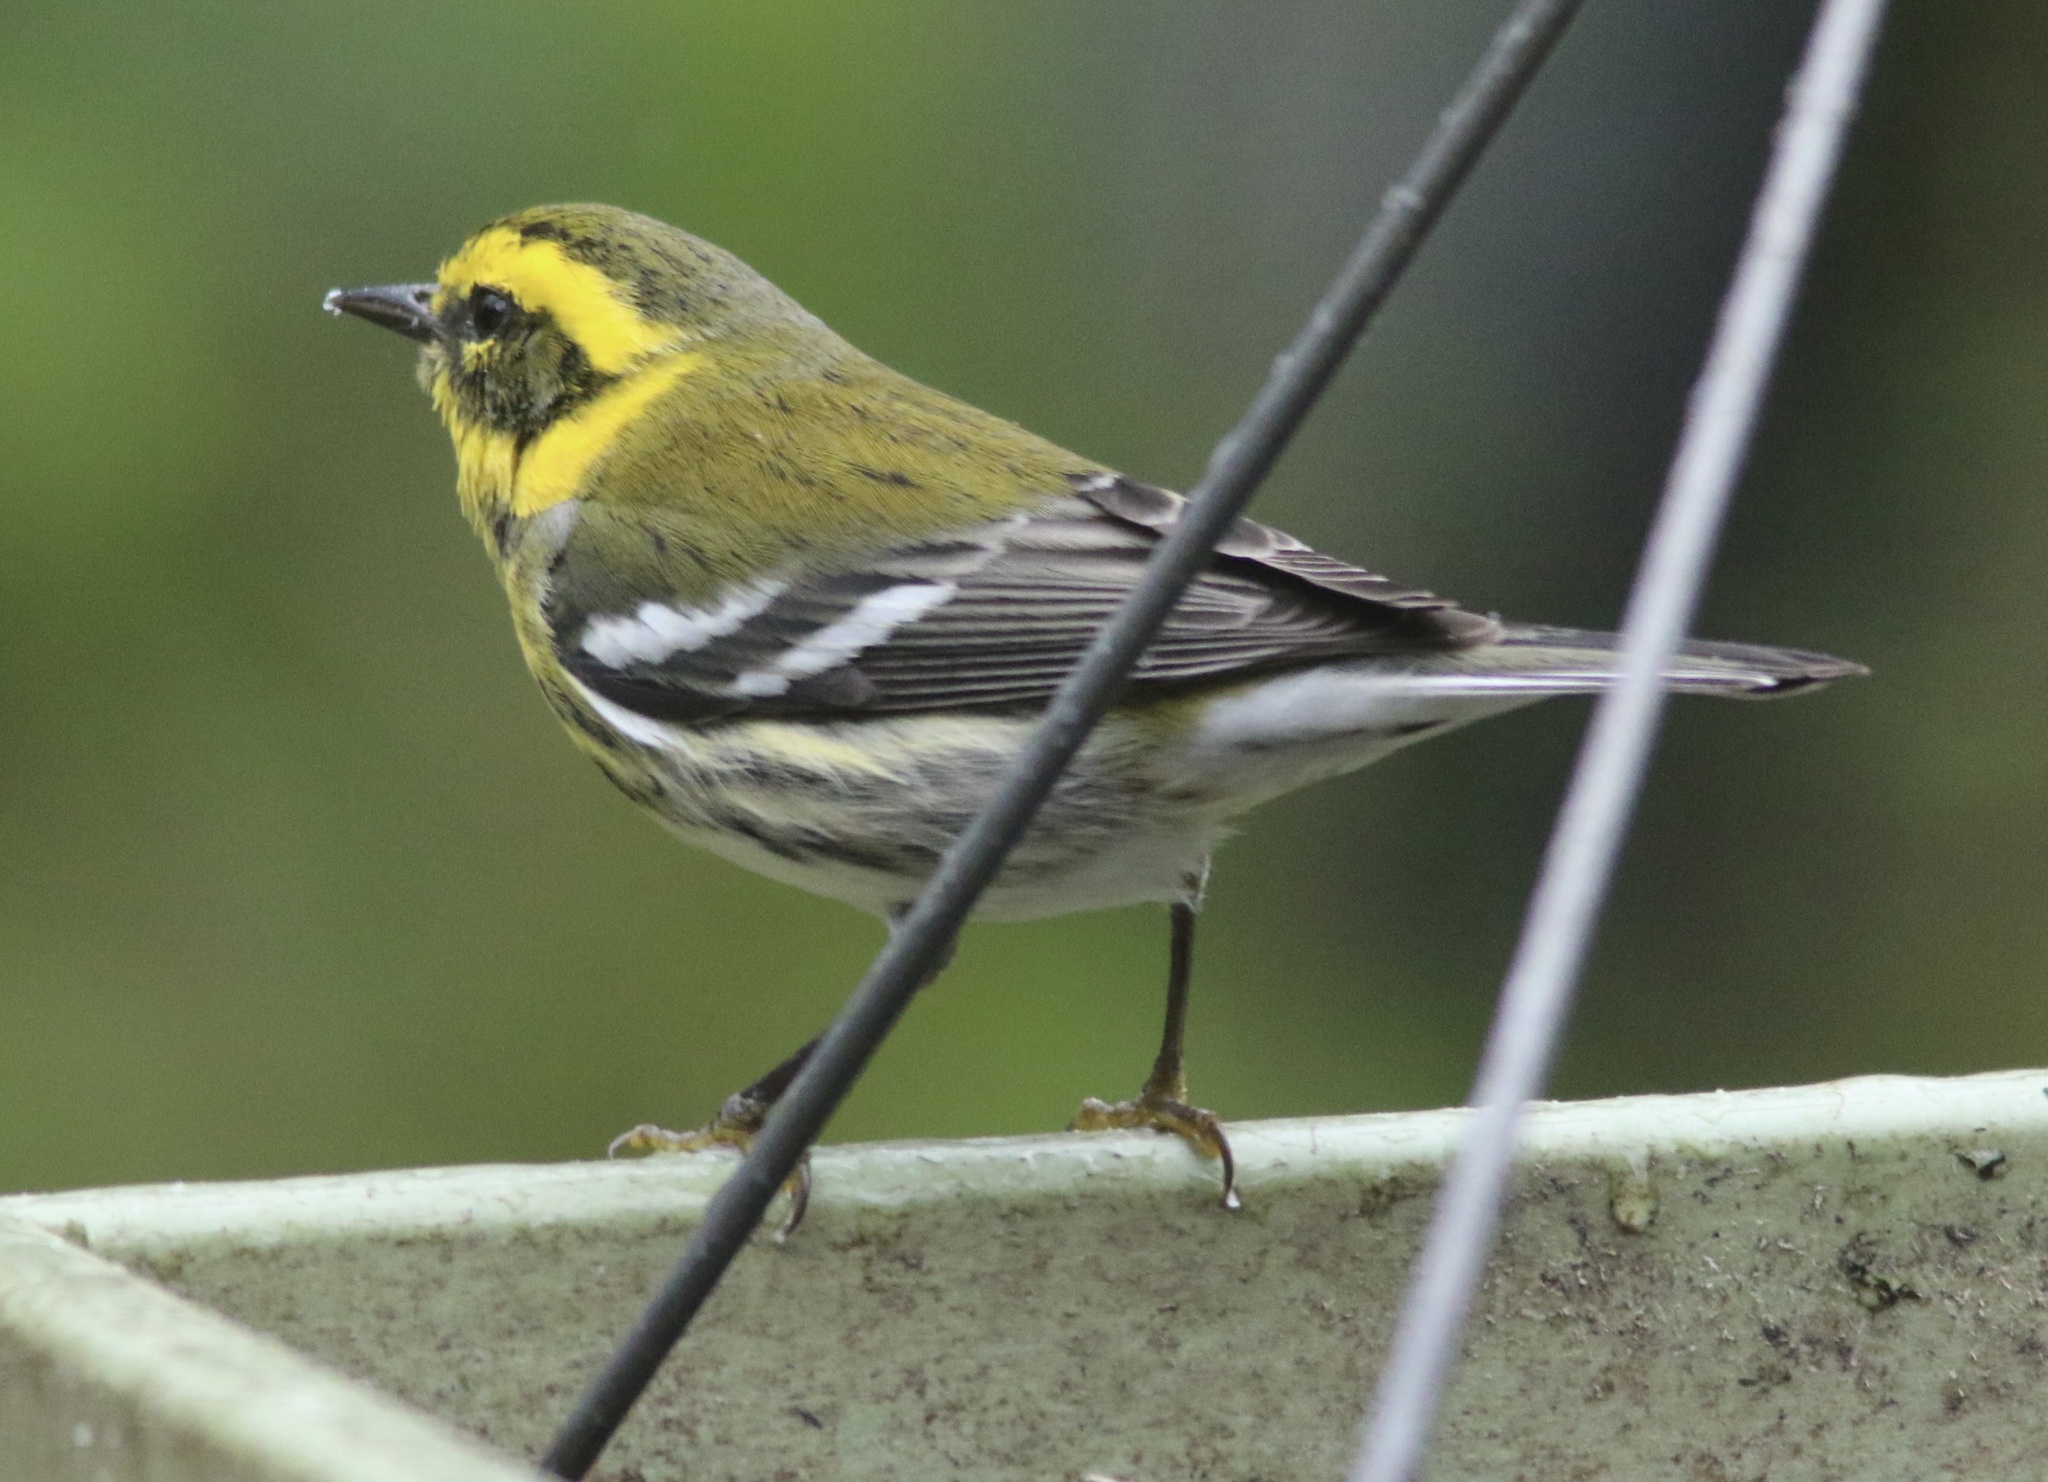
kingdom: Animalia
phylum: Chordata
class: Aves
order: Passeriformes
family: Parulidae
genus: Setophaga
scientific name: Setophaga townsendi
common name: Townsend's warbler
